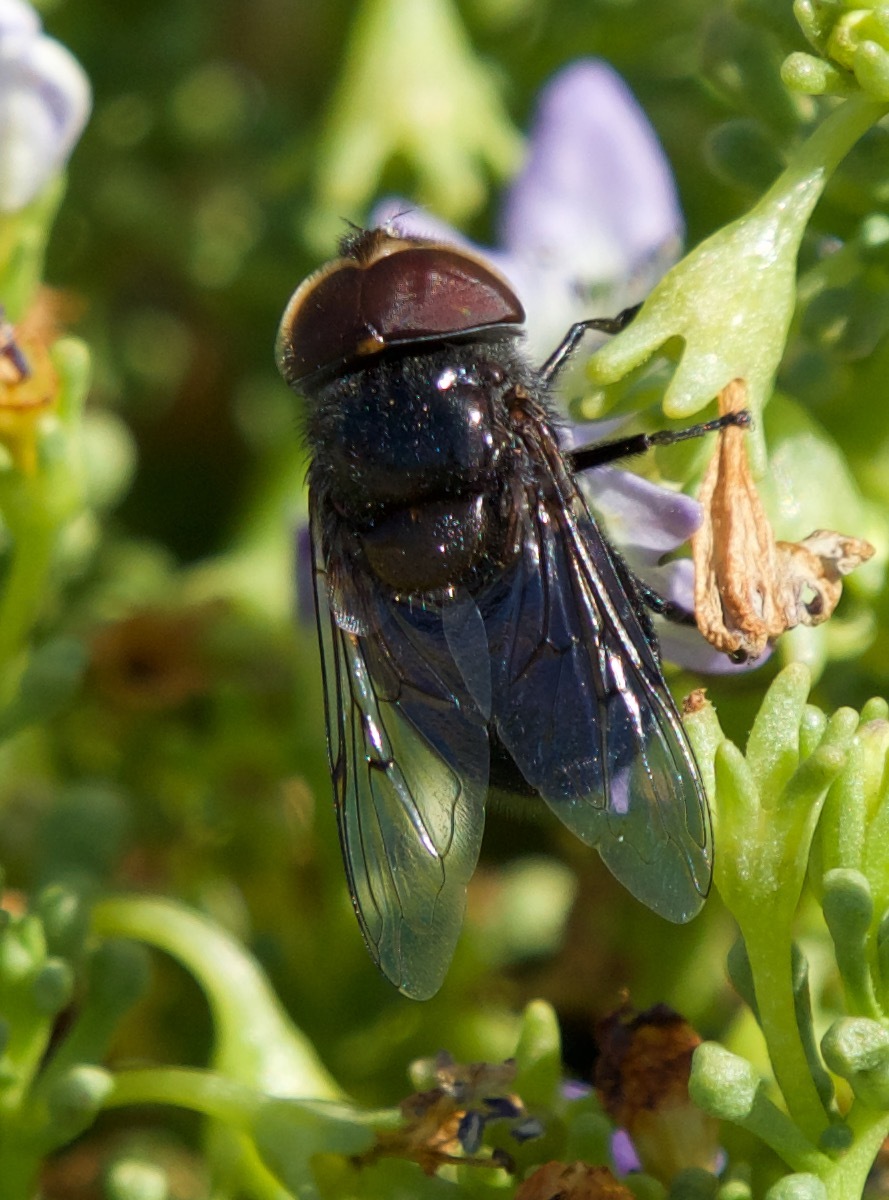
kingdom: Animalia
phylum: Arthropoda
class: Insecta
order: Diptera
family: Syrphidae
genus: Copestylum
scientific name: Copestylum scutellatum
